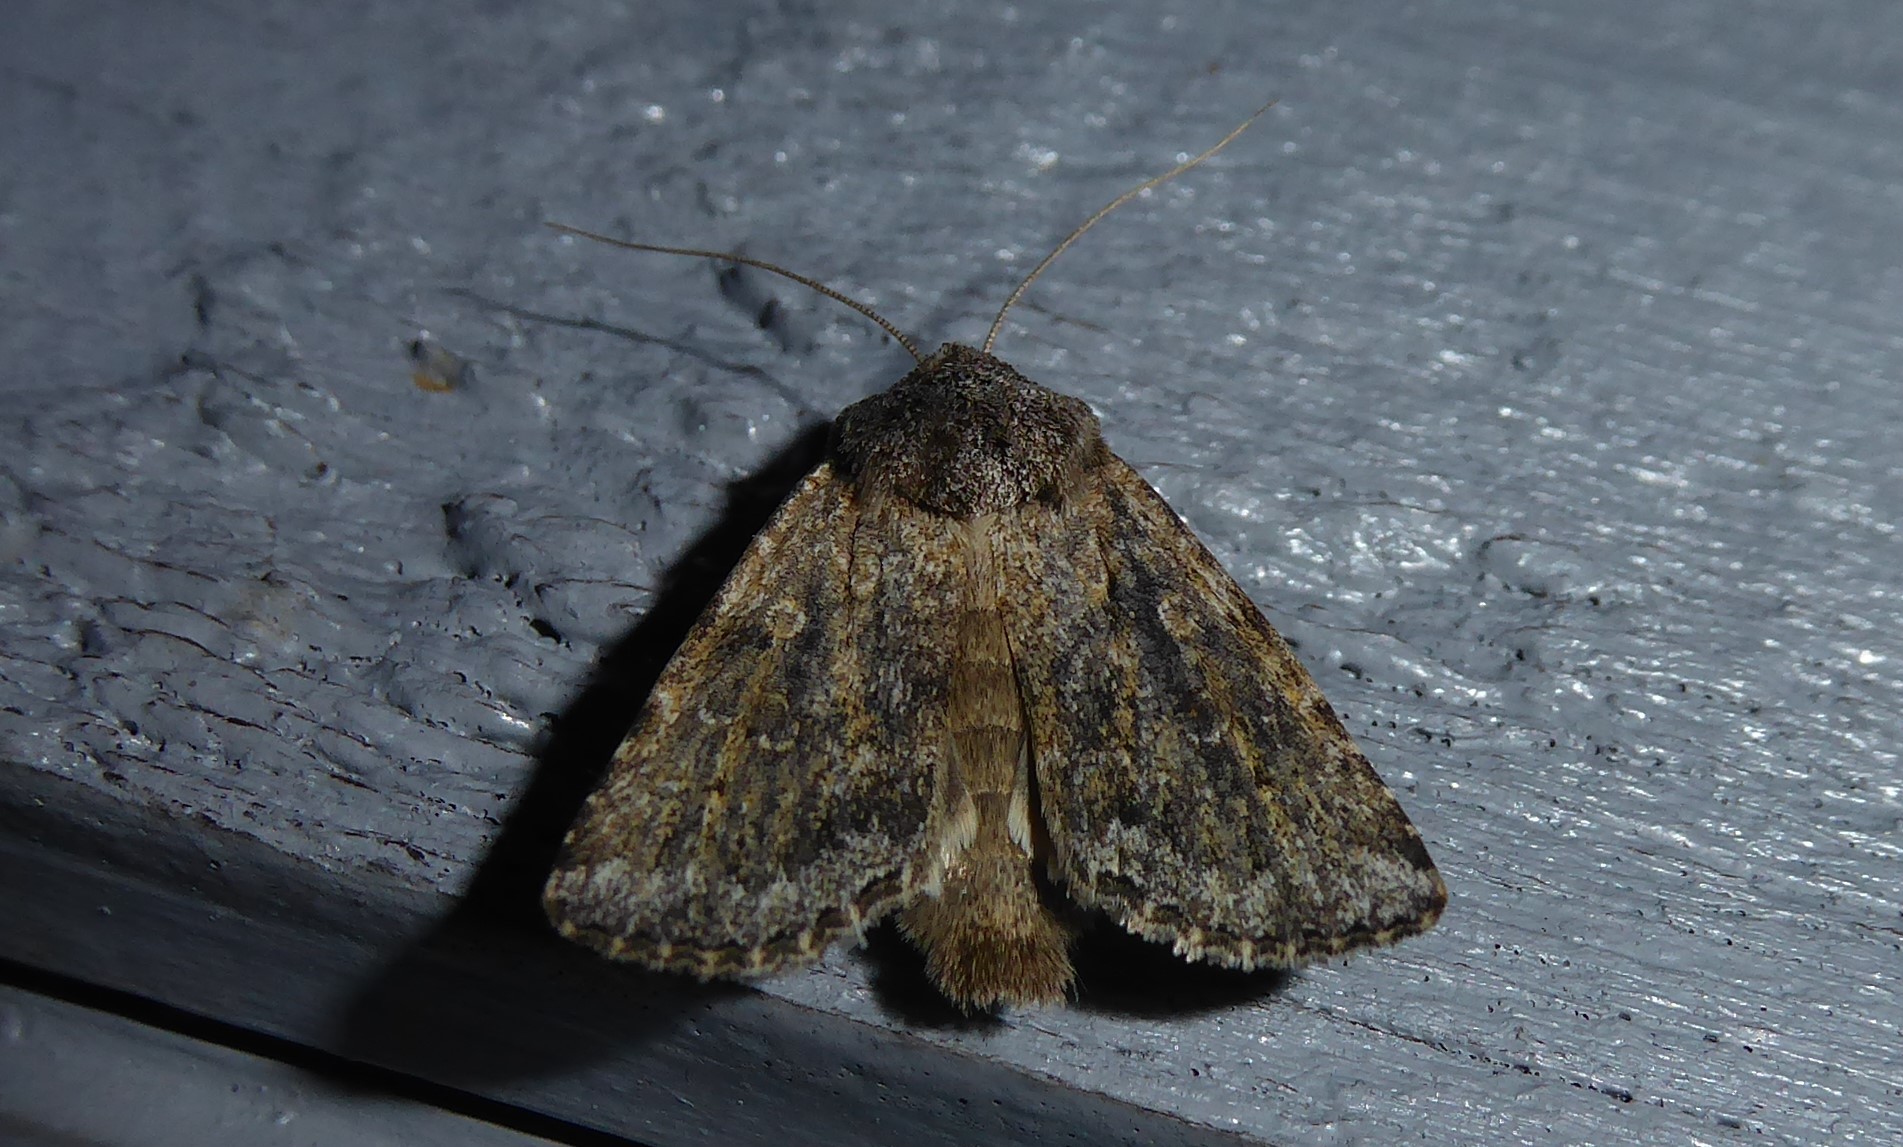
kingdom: Animalia
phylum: Arthropoda
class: Insecta
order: Lepidoptera
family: Noctuidae
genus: Ichneutica
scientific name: Ichneutica moderata
